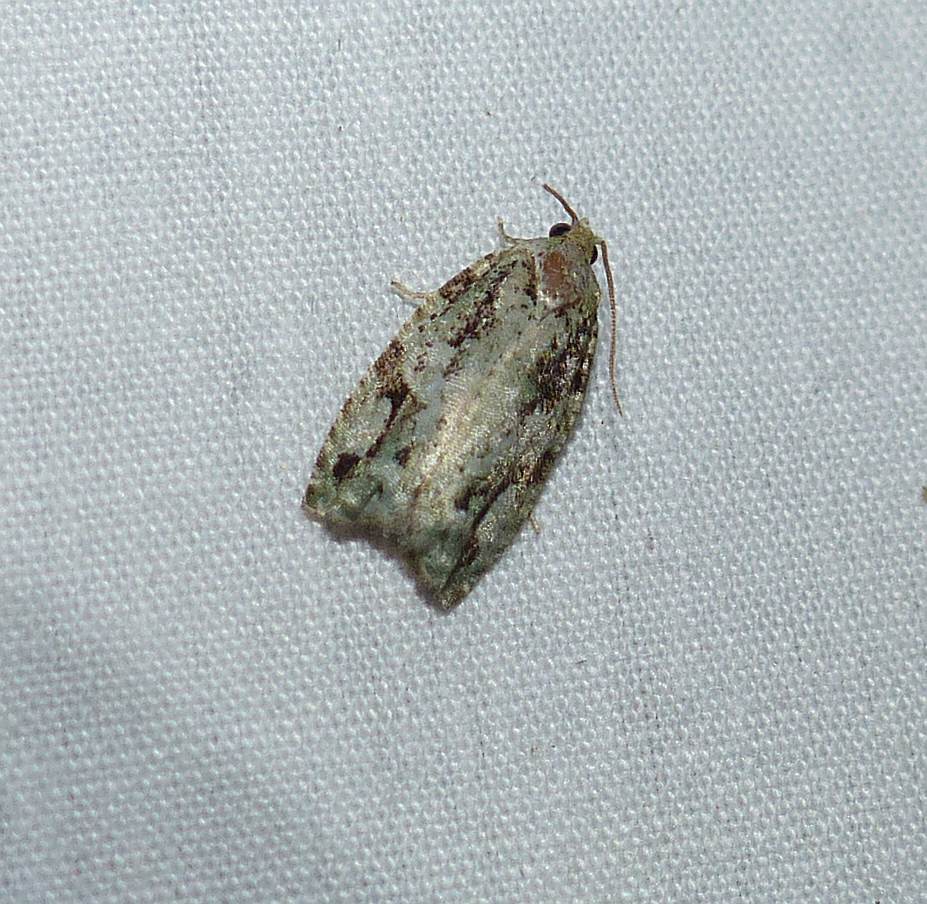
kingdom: Animalia
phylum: Arthropoda
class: Insecta
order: Lepidoptera
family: Tortricidae
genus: Proteoteras
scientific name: Proteoteras moffatiana
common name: Maple bud borer moth
